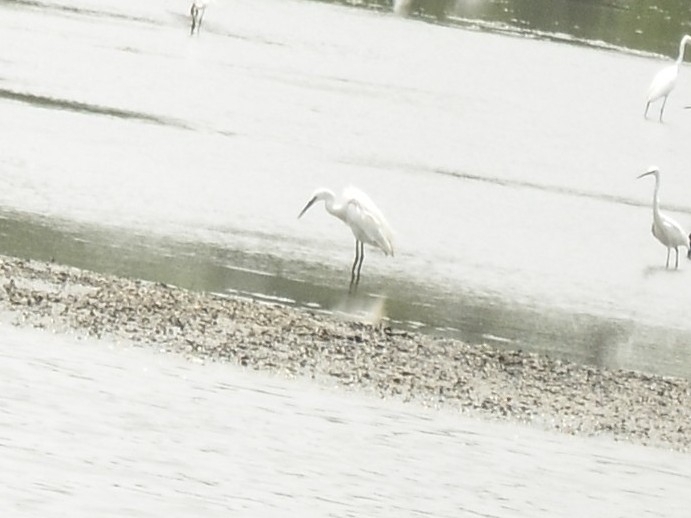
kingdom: Animalia
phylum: Chordata
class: Aves
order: Pelecaniformes
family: Ardeidae
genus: Egretta
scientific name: Egretta garzetta
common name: Little egret
